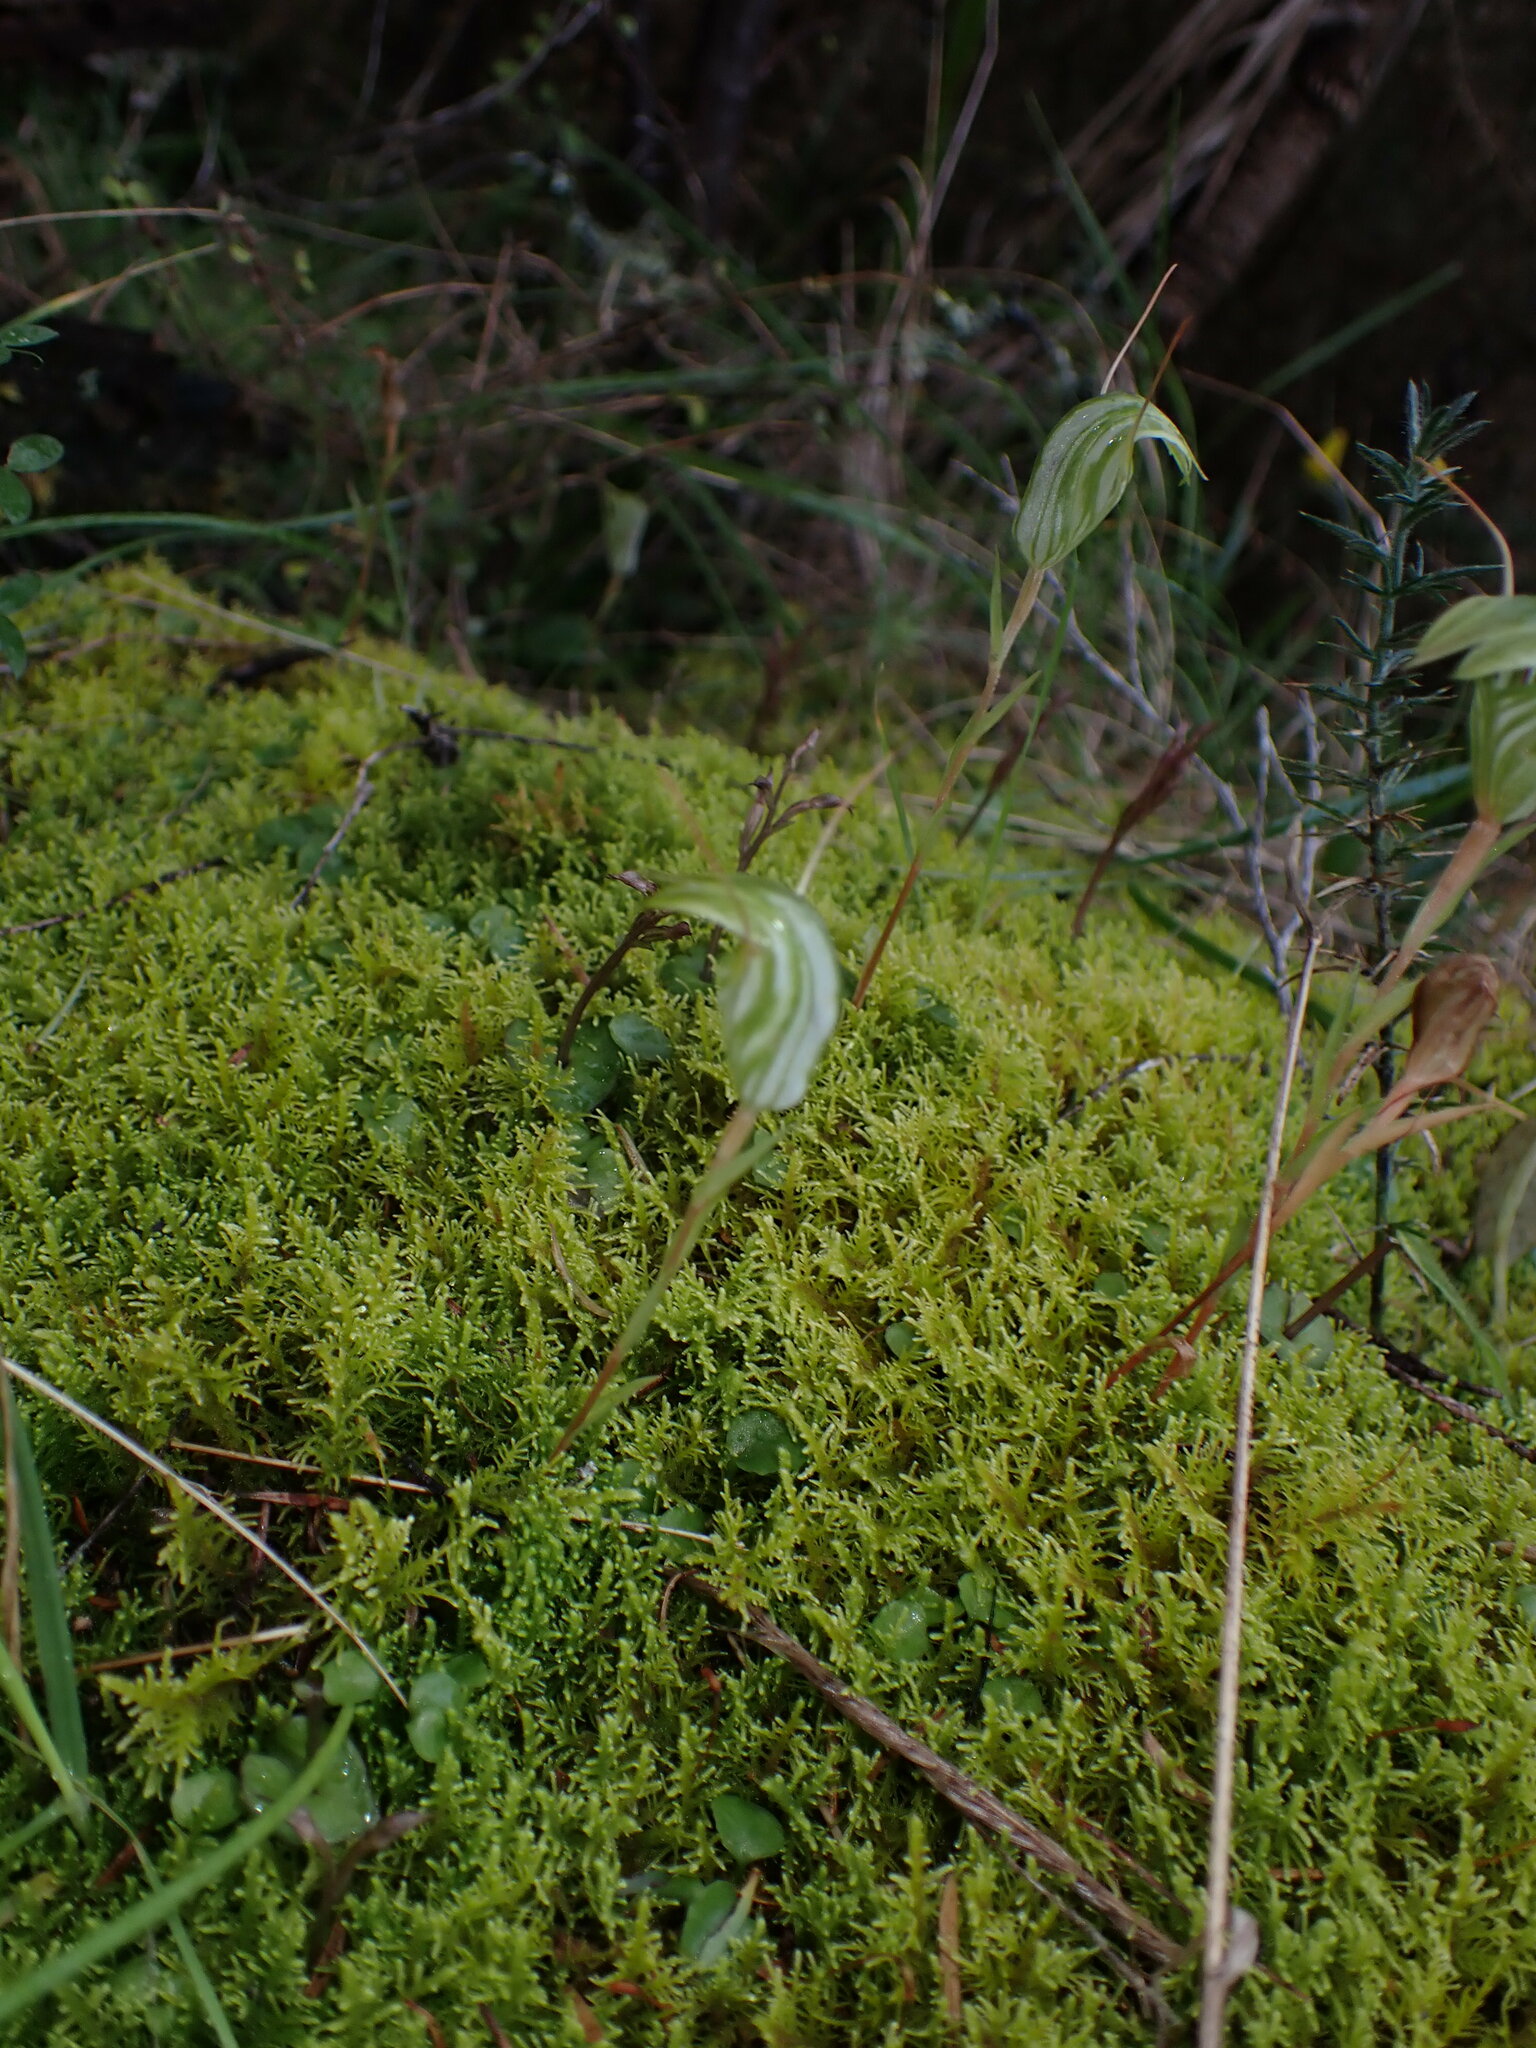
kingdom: Plantae
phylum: Tracheophyta
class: Liliopsida
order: Asparagales
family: Orchidaceae
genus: Pterostylis
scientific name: Pterostylis alobula
